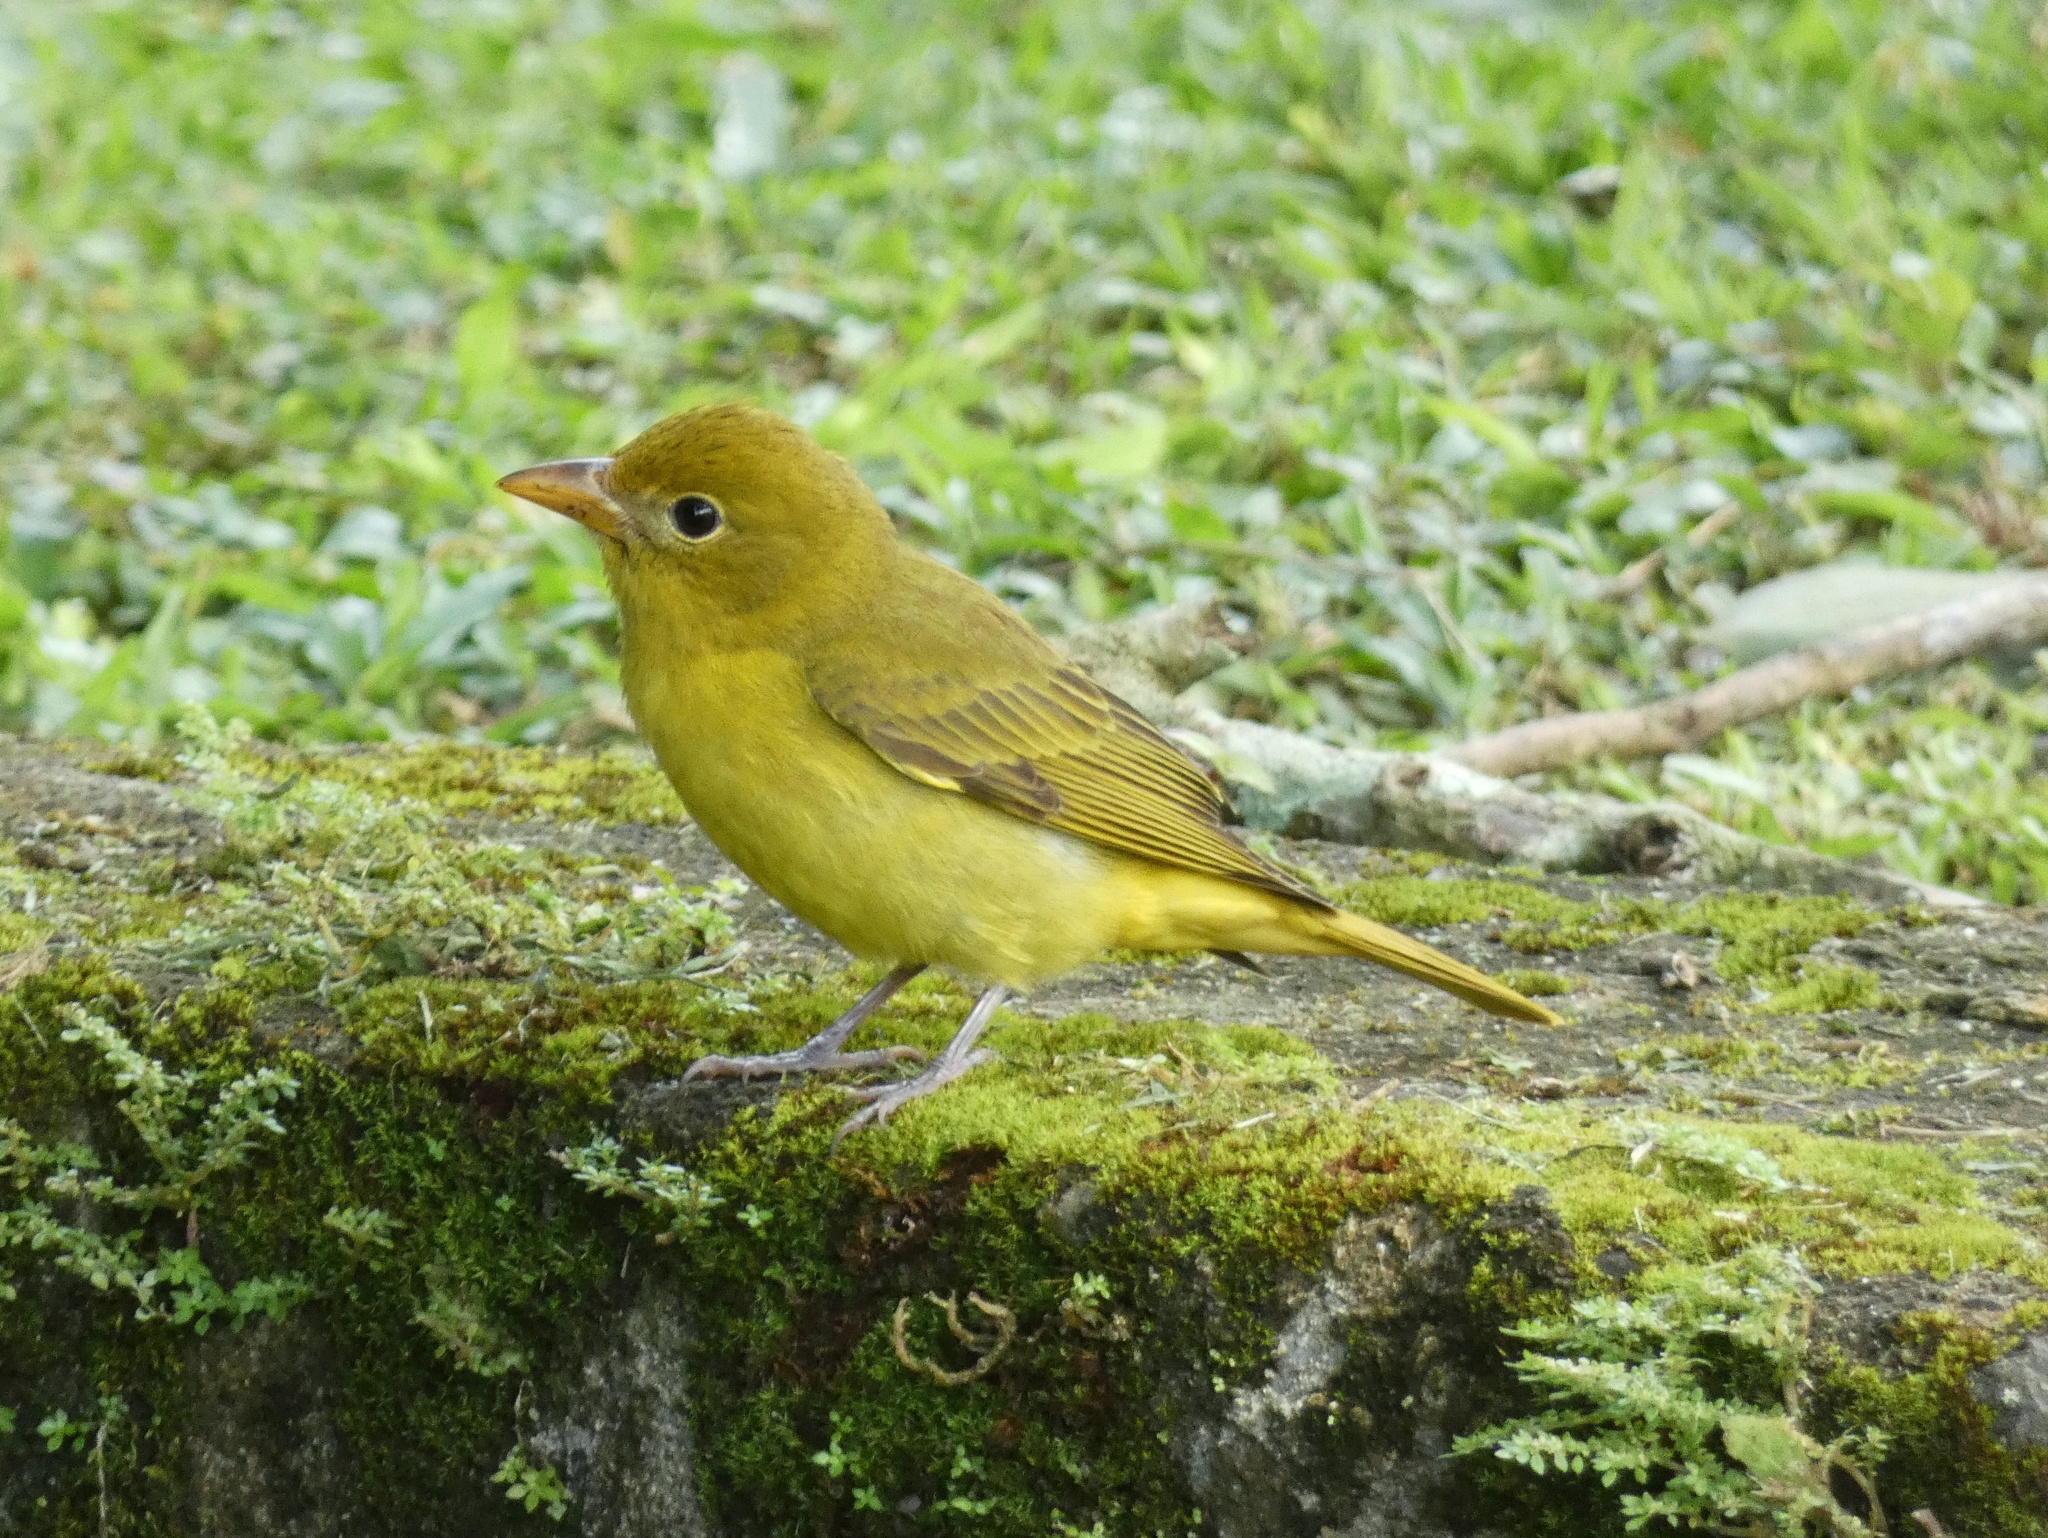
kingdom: Animalia
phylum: Chordata
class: Aves
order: Passeriformes
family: Cardinalidae
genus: Piranga
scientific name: Piranga rubra
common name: Summer tanager
